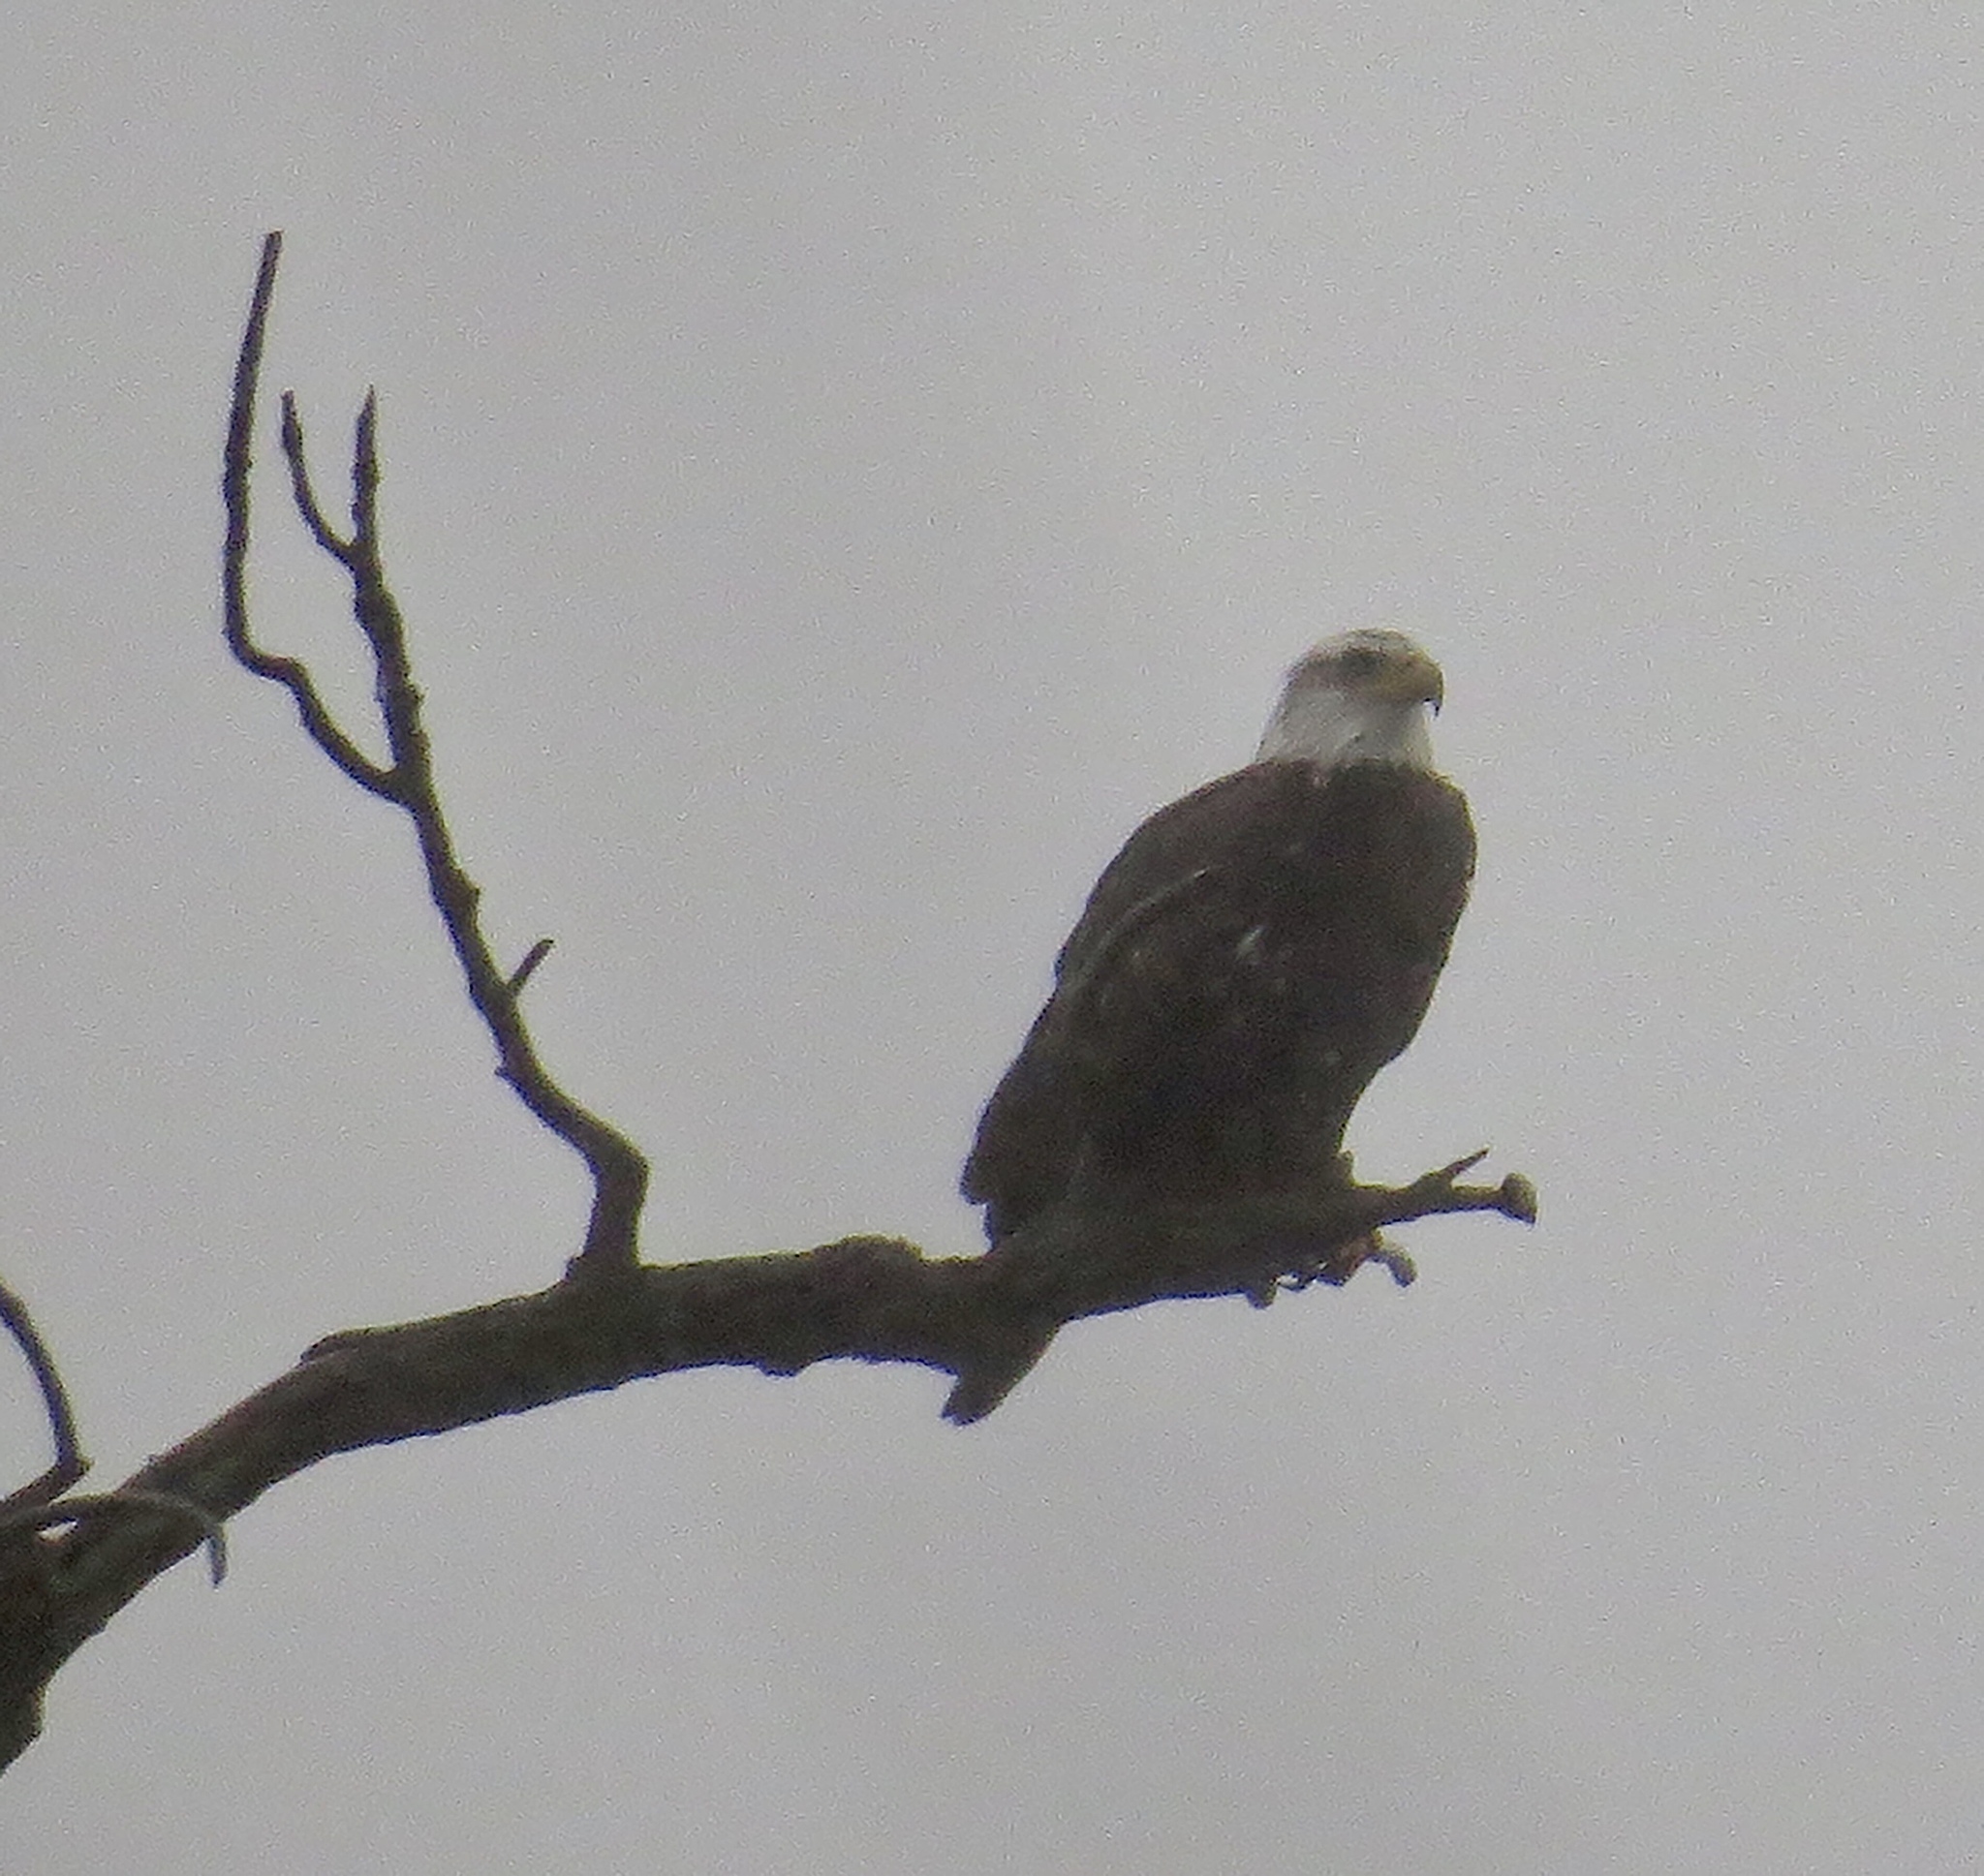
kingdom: Animalia
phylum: Chordata
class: Aves
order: Accipitriformes
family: Accipitridae
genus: Haliaeetus
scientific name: Haliaeetus leucocephalus
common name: Bald eagle
